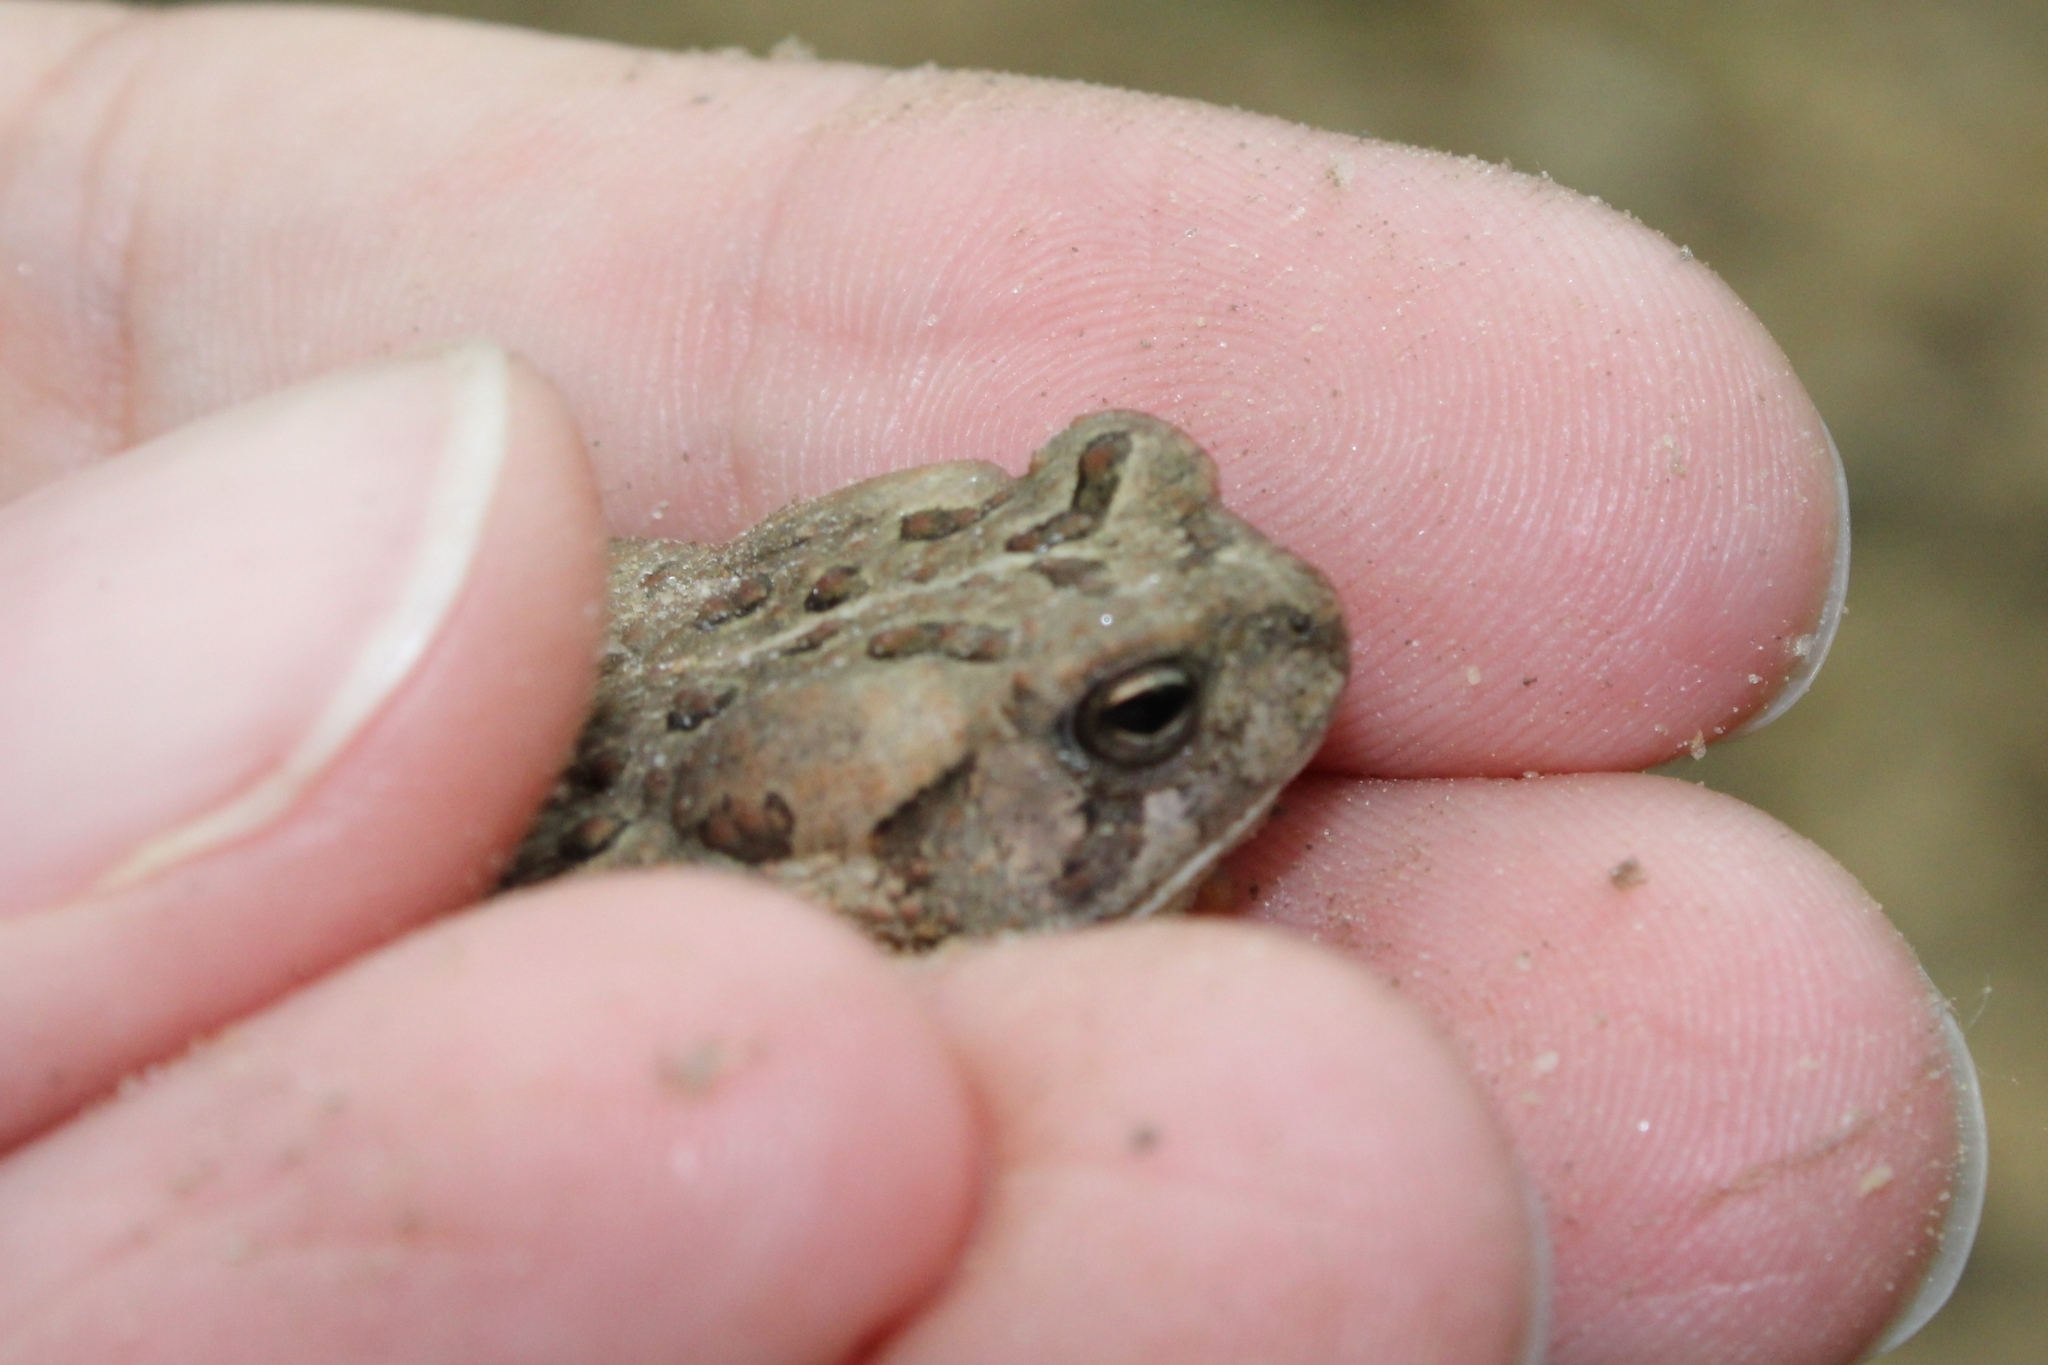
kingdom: Animalia
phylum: Chordata
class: Amphibia
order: Anura
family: Bufonidae
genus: Anaxyrus
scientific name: Anaxyrus fowleri
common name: Fowler's toad
